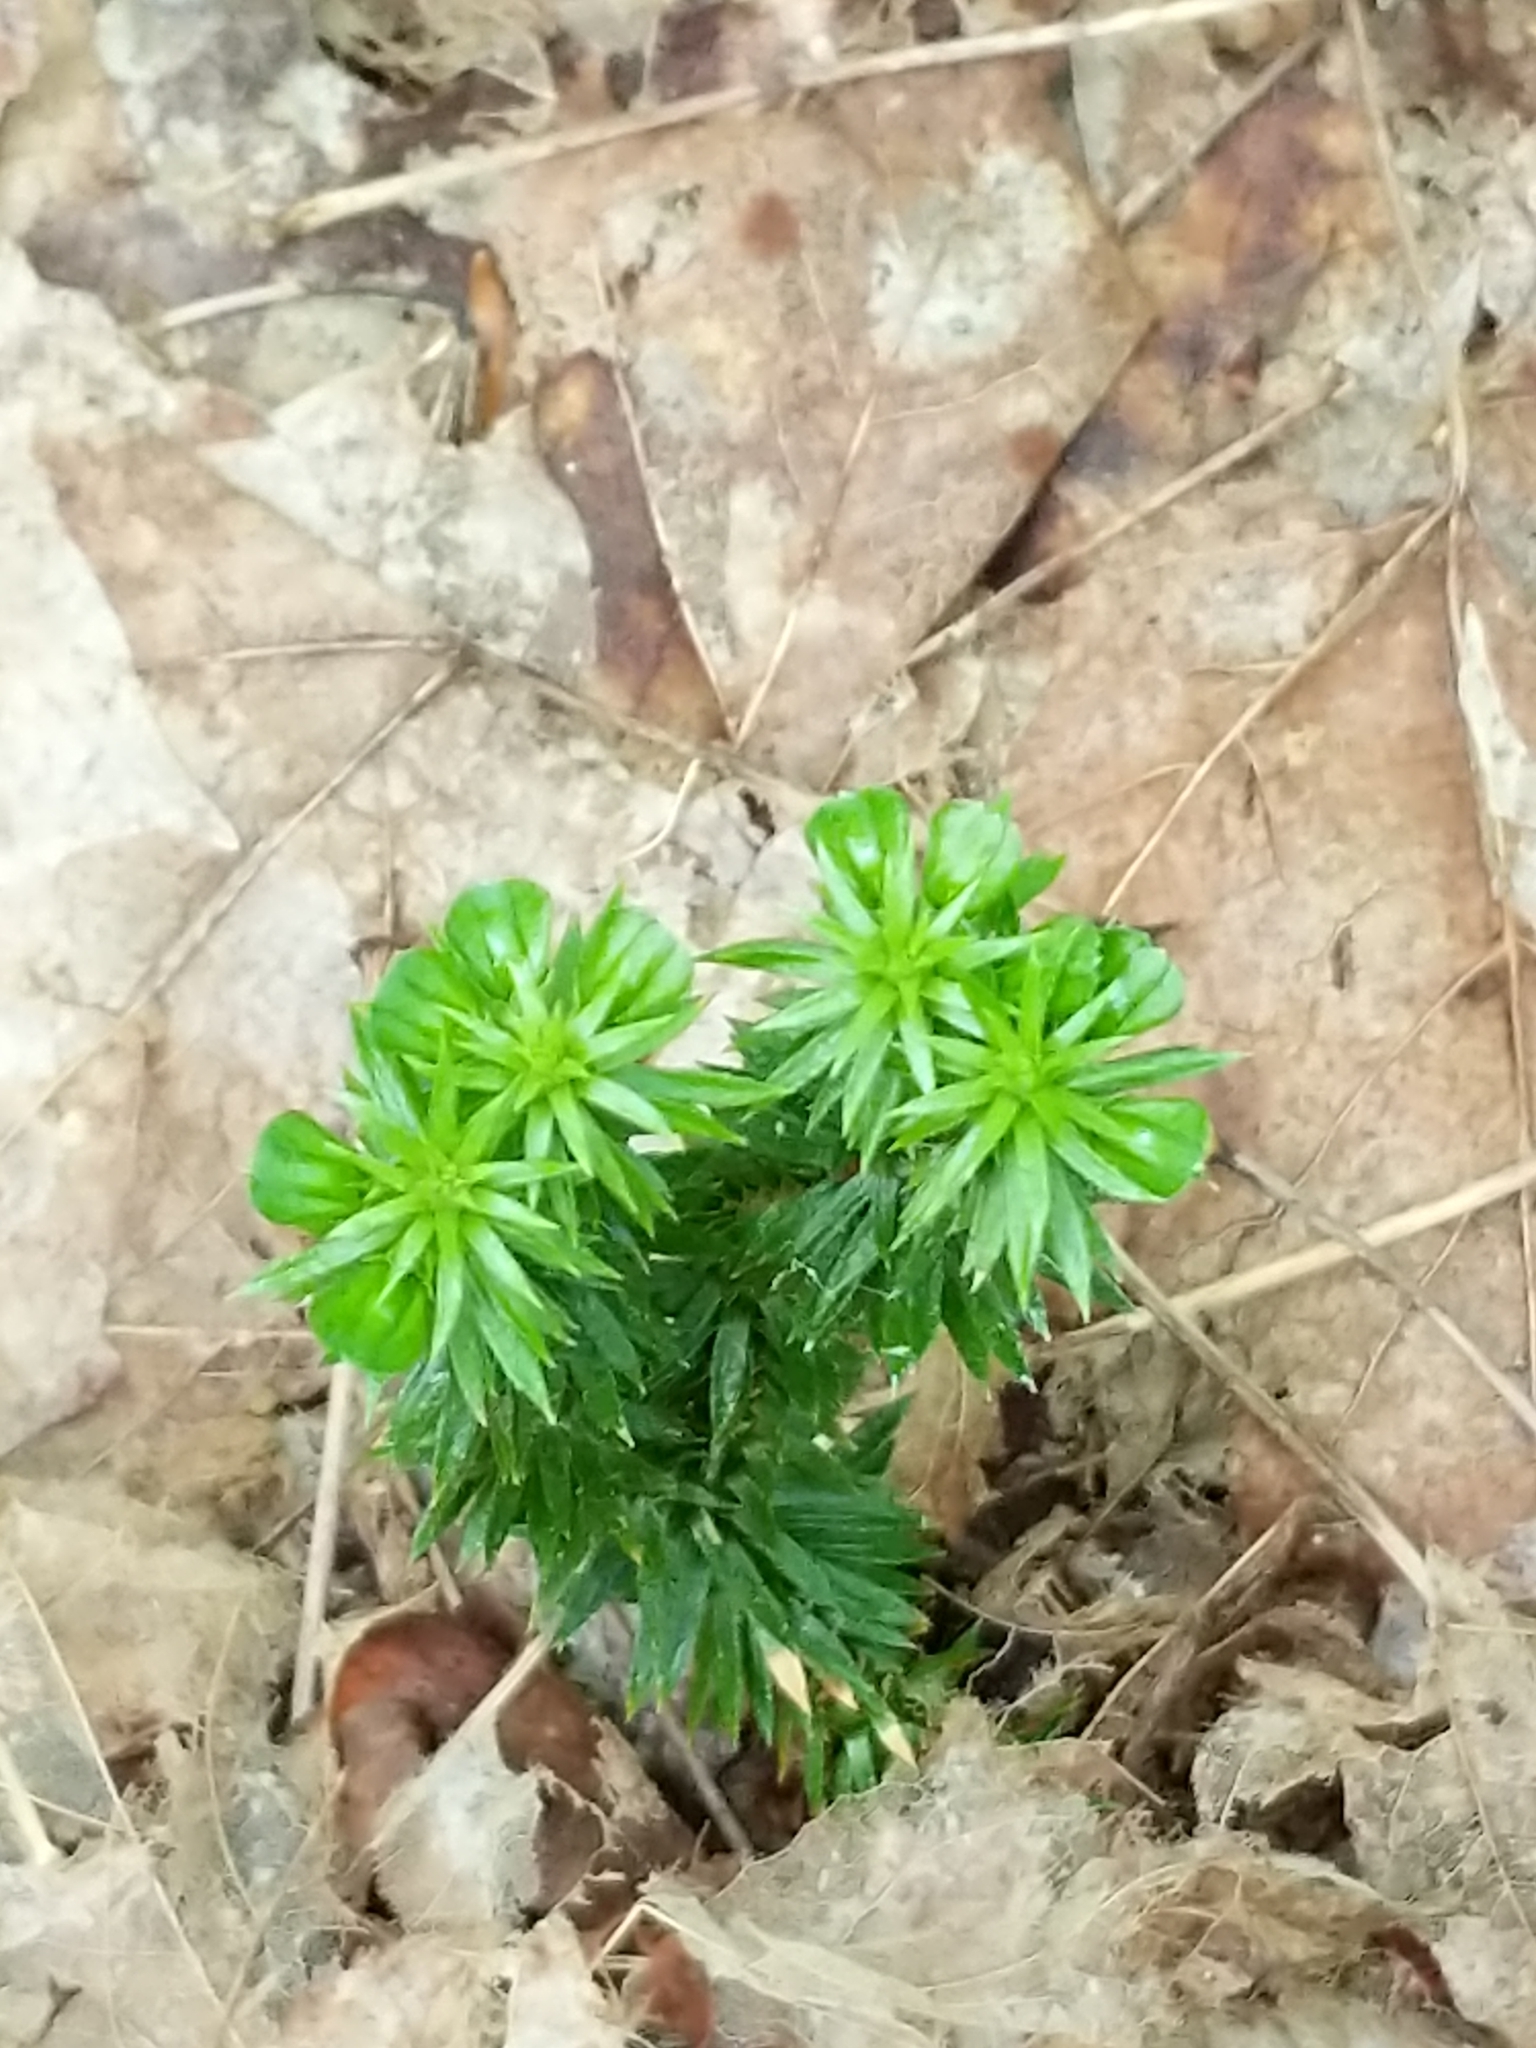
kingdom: Plantae
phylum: Tracheophyta
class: Lycopodiopsida
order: Lycopodiales
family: Lycopodiaceae
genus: Huperzia
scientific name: Huperzia lucidula
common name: Shining clubmoss
